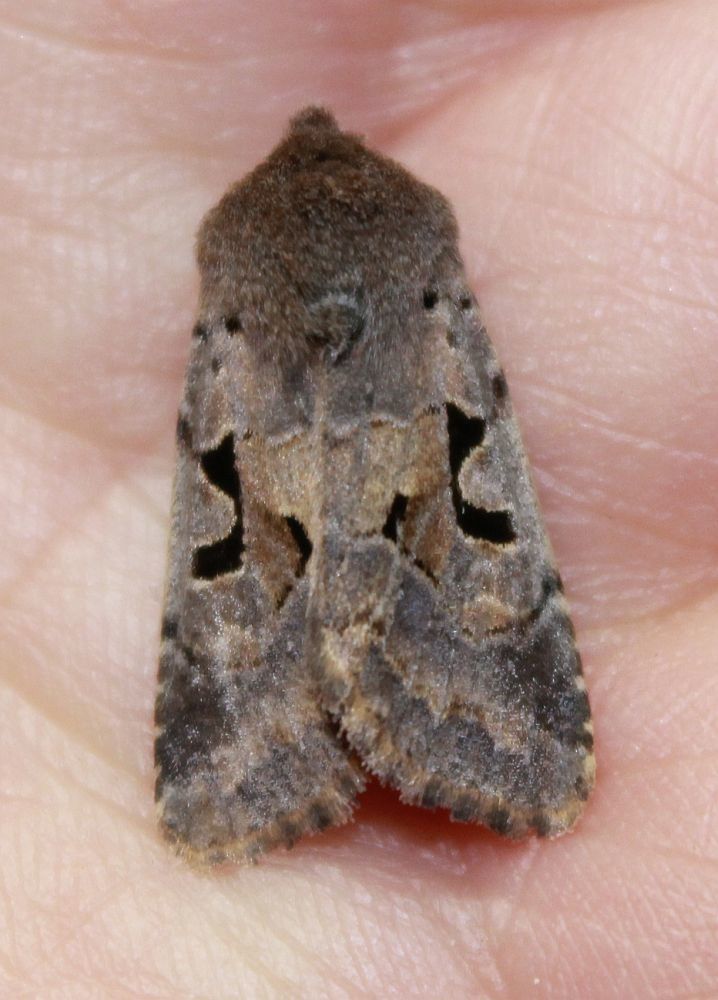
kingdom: Animalia
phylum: Arthropoda
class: Insecta
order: Lepidoptera
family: Noctuidae
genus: Orthosia
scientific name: Orthosia gothica
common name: Hebrew character
